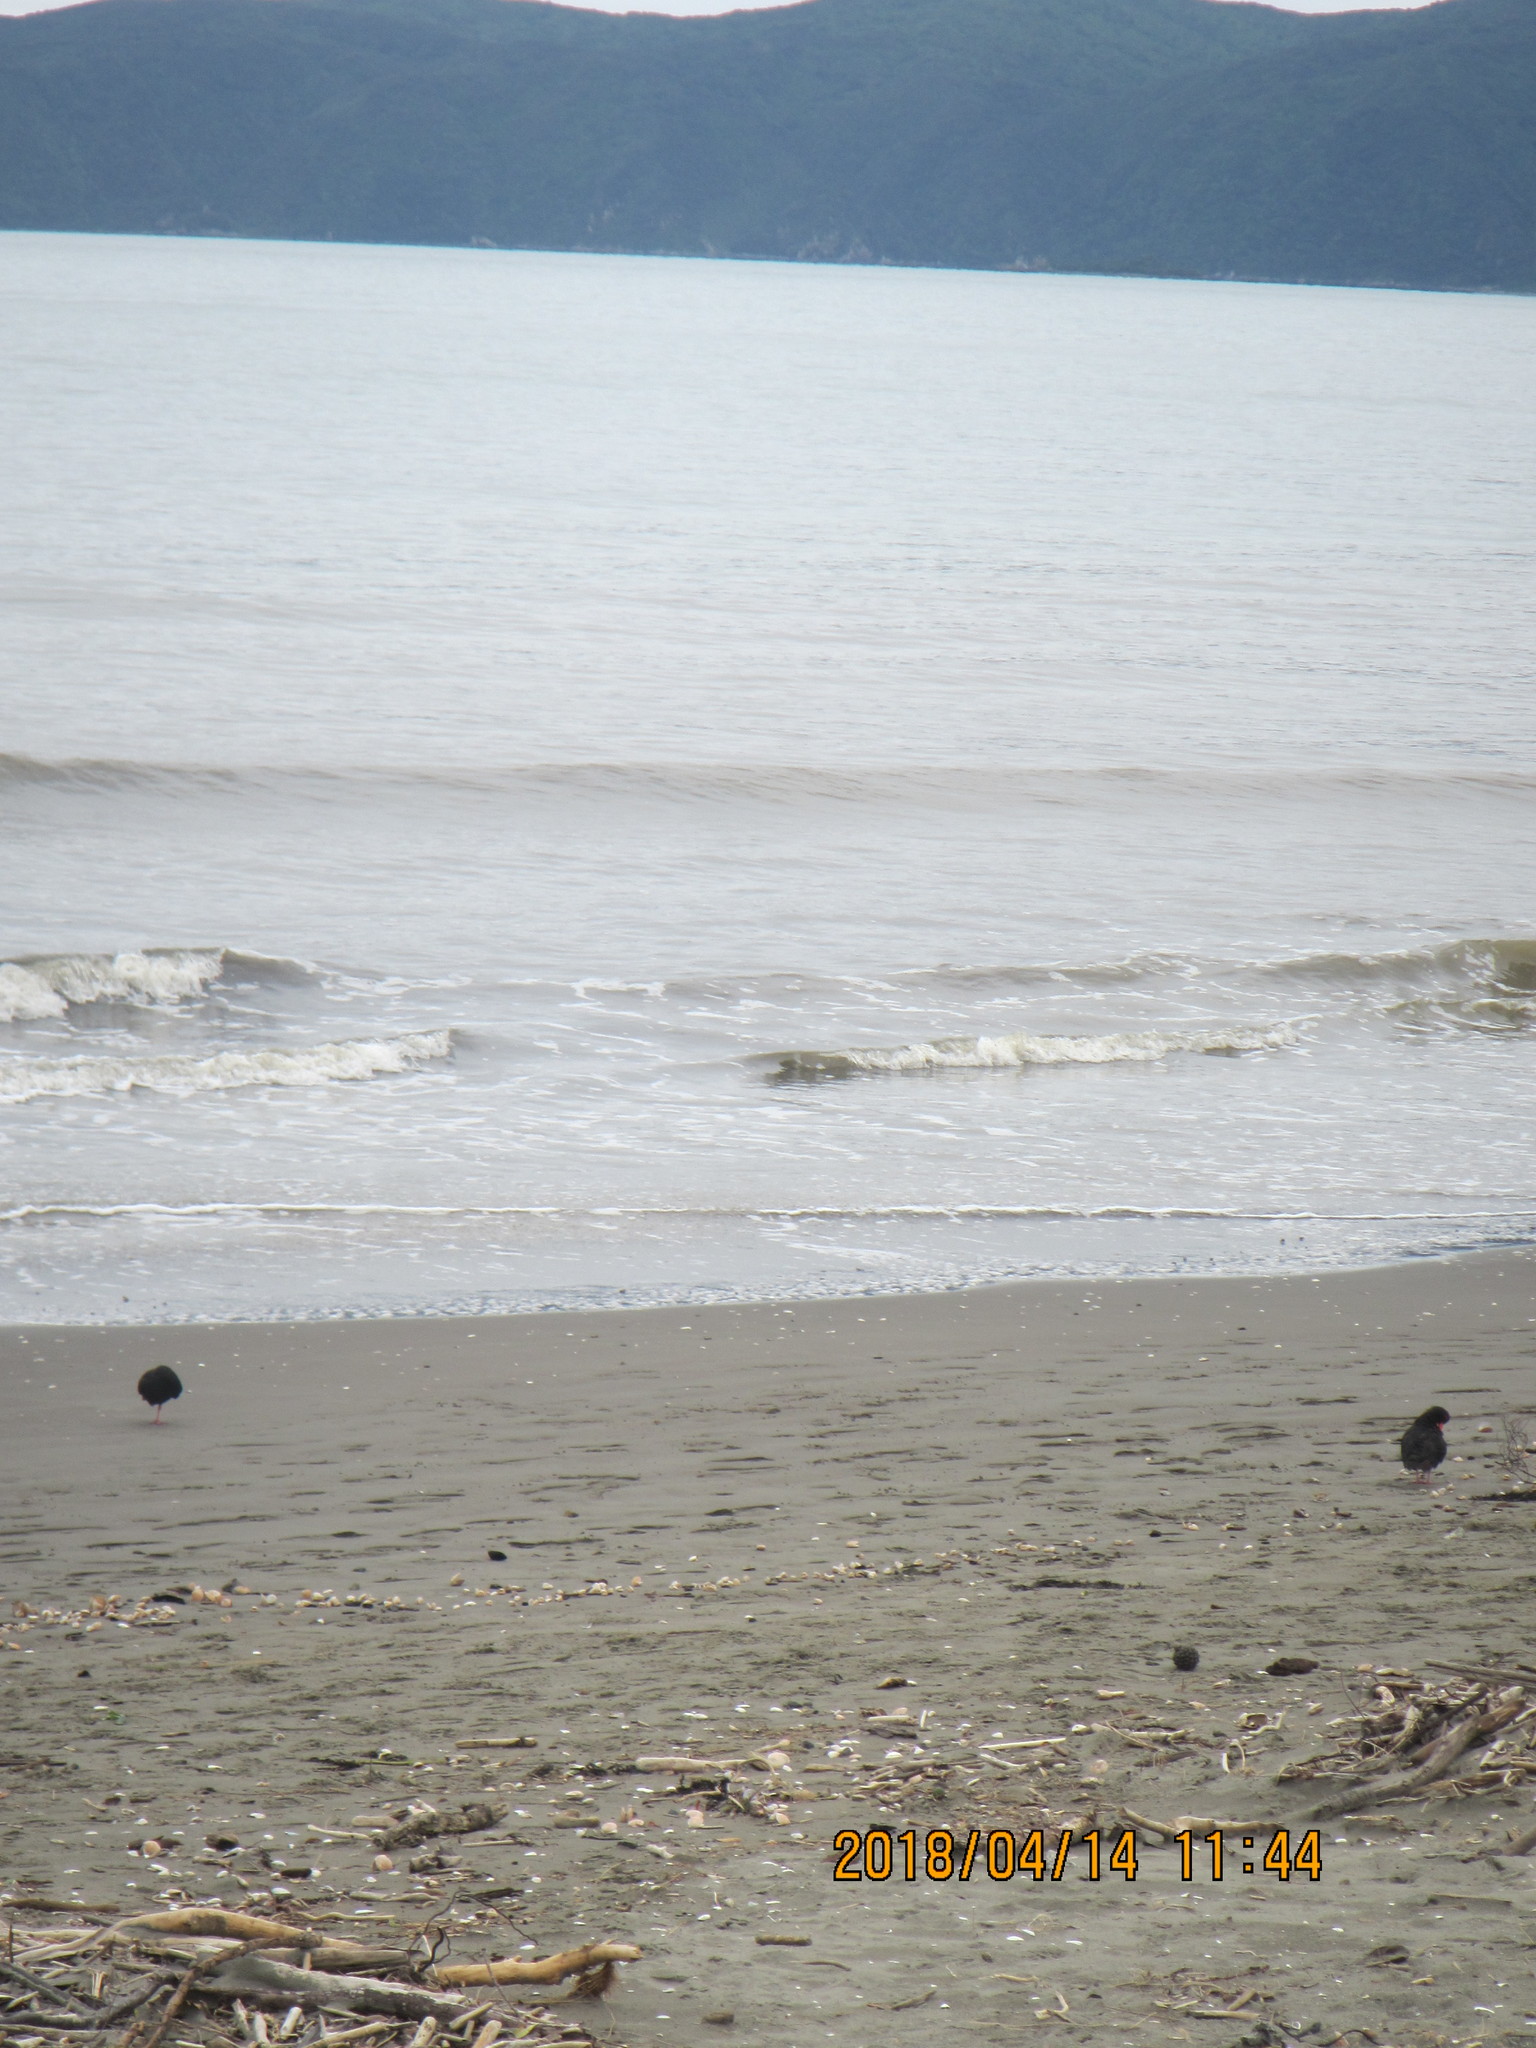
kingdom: Animalia
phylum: Chordata
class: Aves
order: Charadriiformes
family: Haematopodidae
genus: Haematopus
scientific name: Haematopus unicolor
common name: Variable oystercatcher
